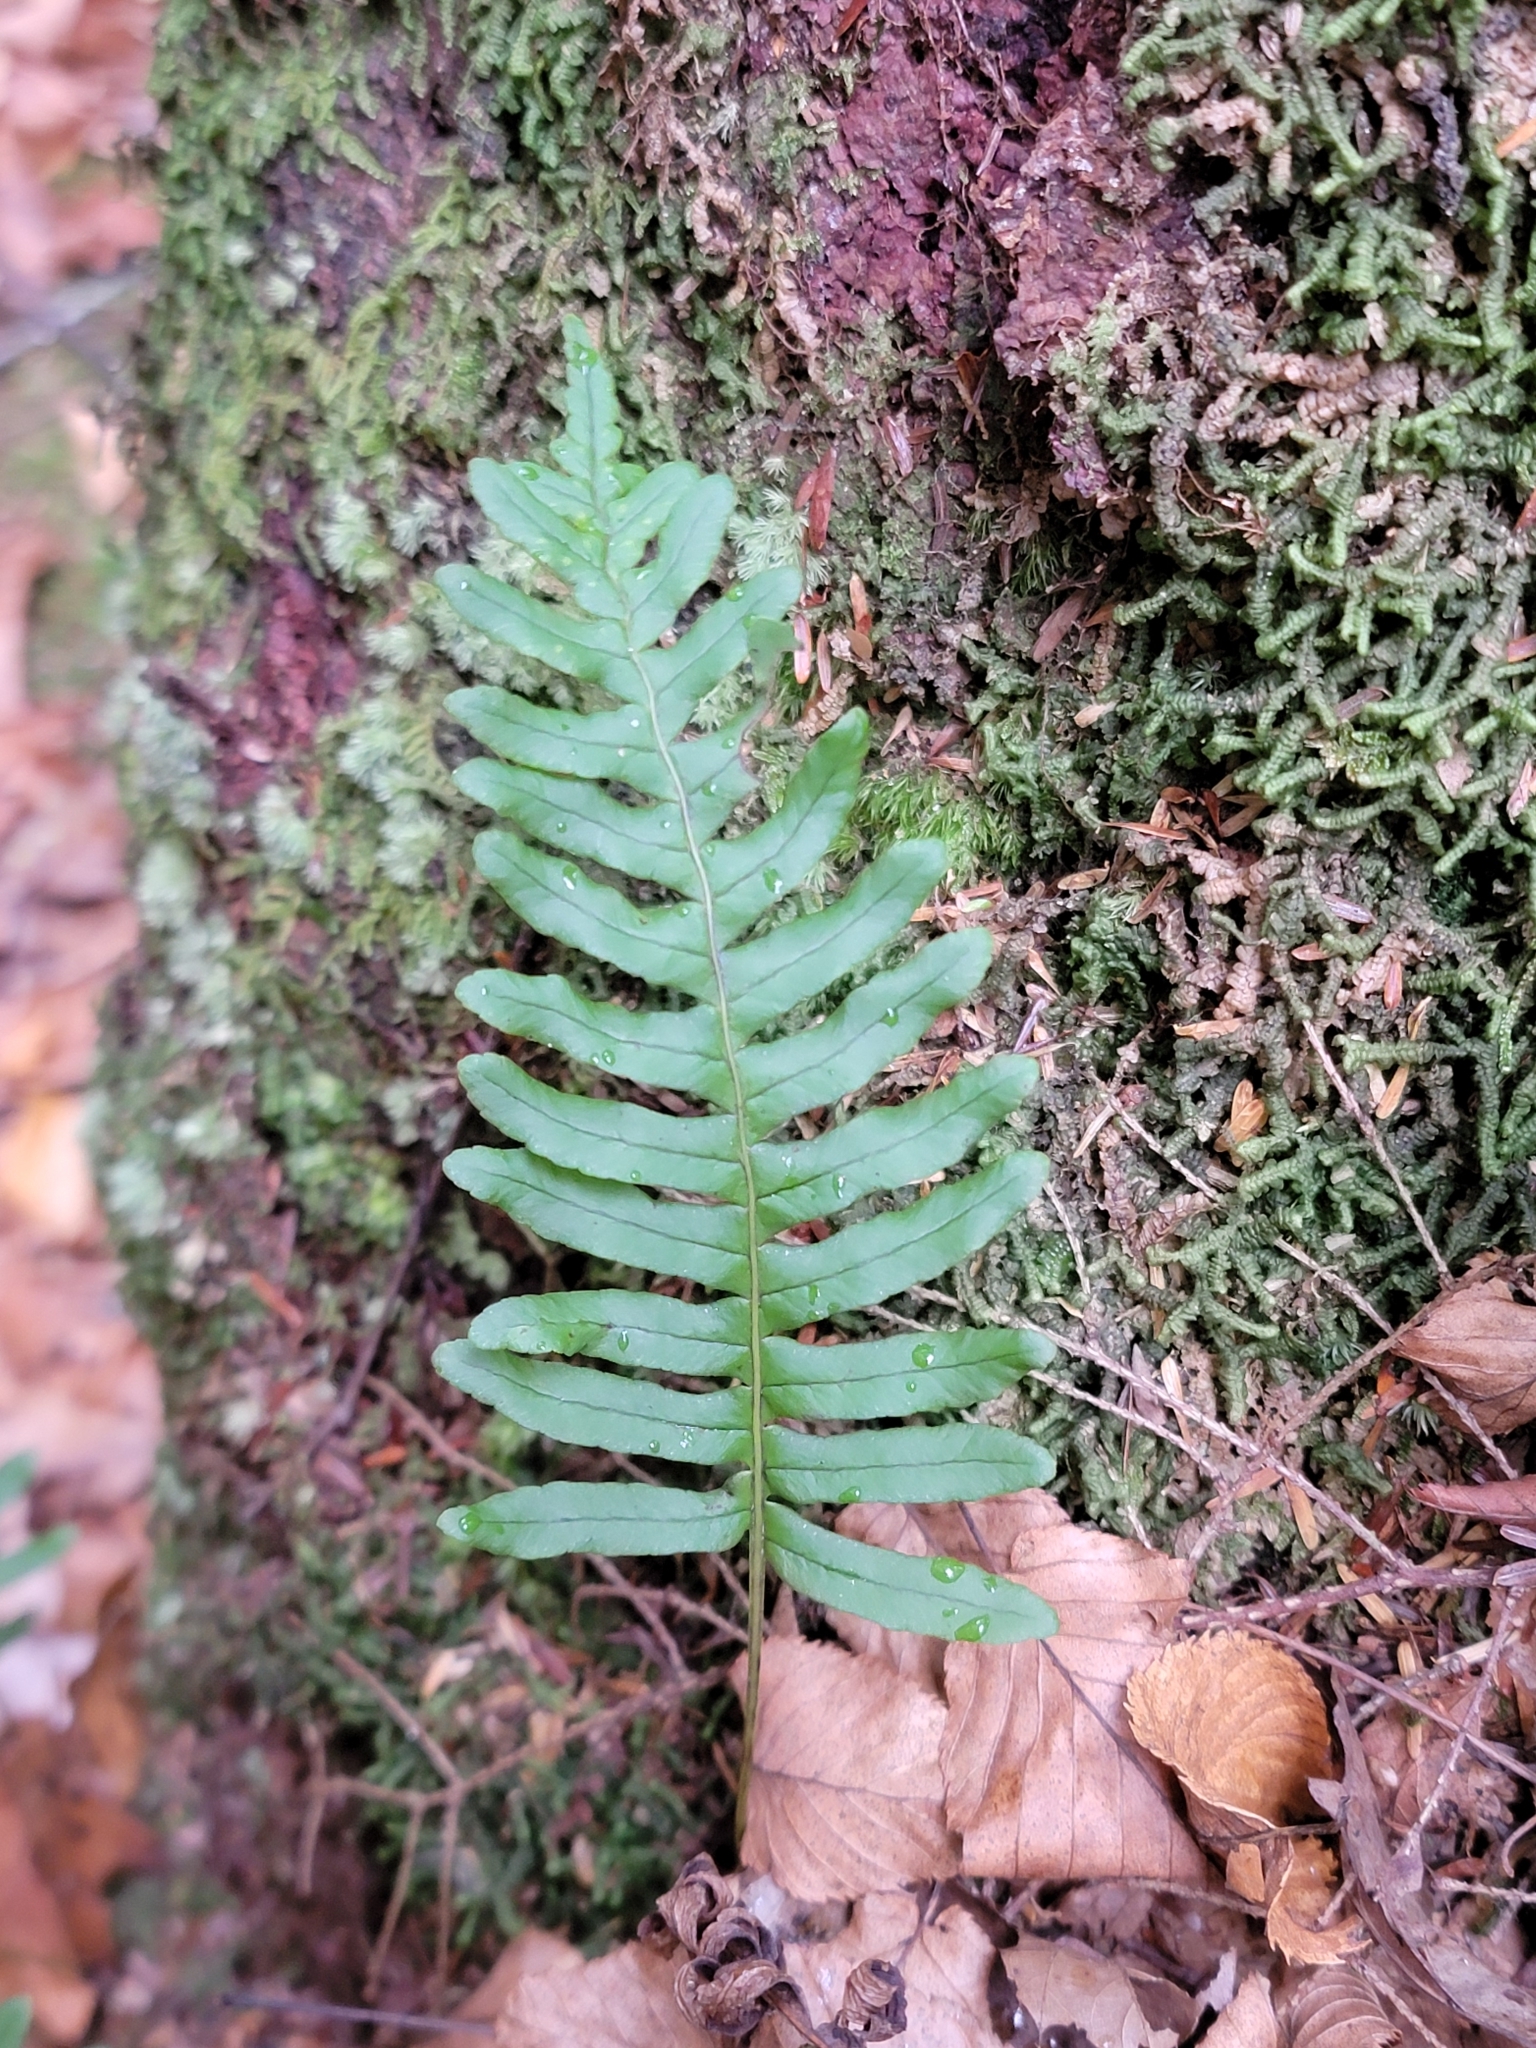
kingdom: Plantae
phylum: Tracheophyta
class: Polypodiopsida
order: Polypodiales
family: Polypodiaceae
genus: Polypodium
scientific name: Polypodium appalachianum
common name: Appalachian polypody
